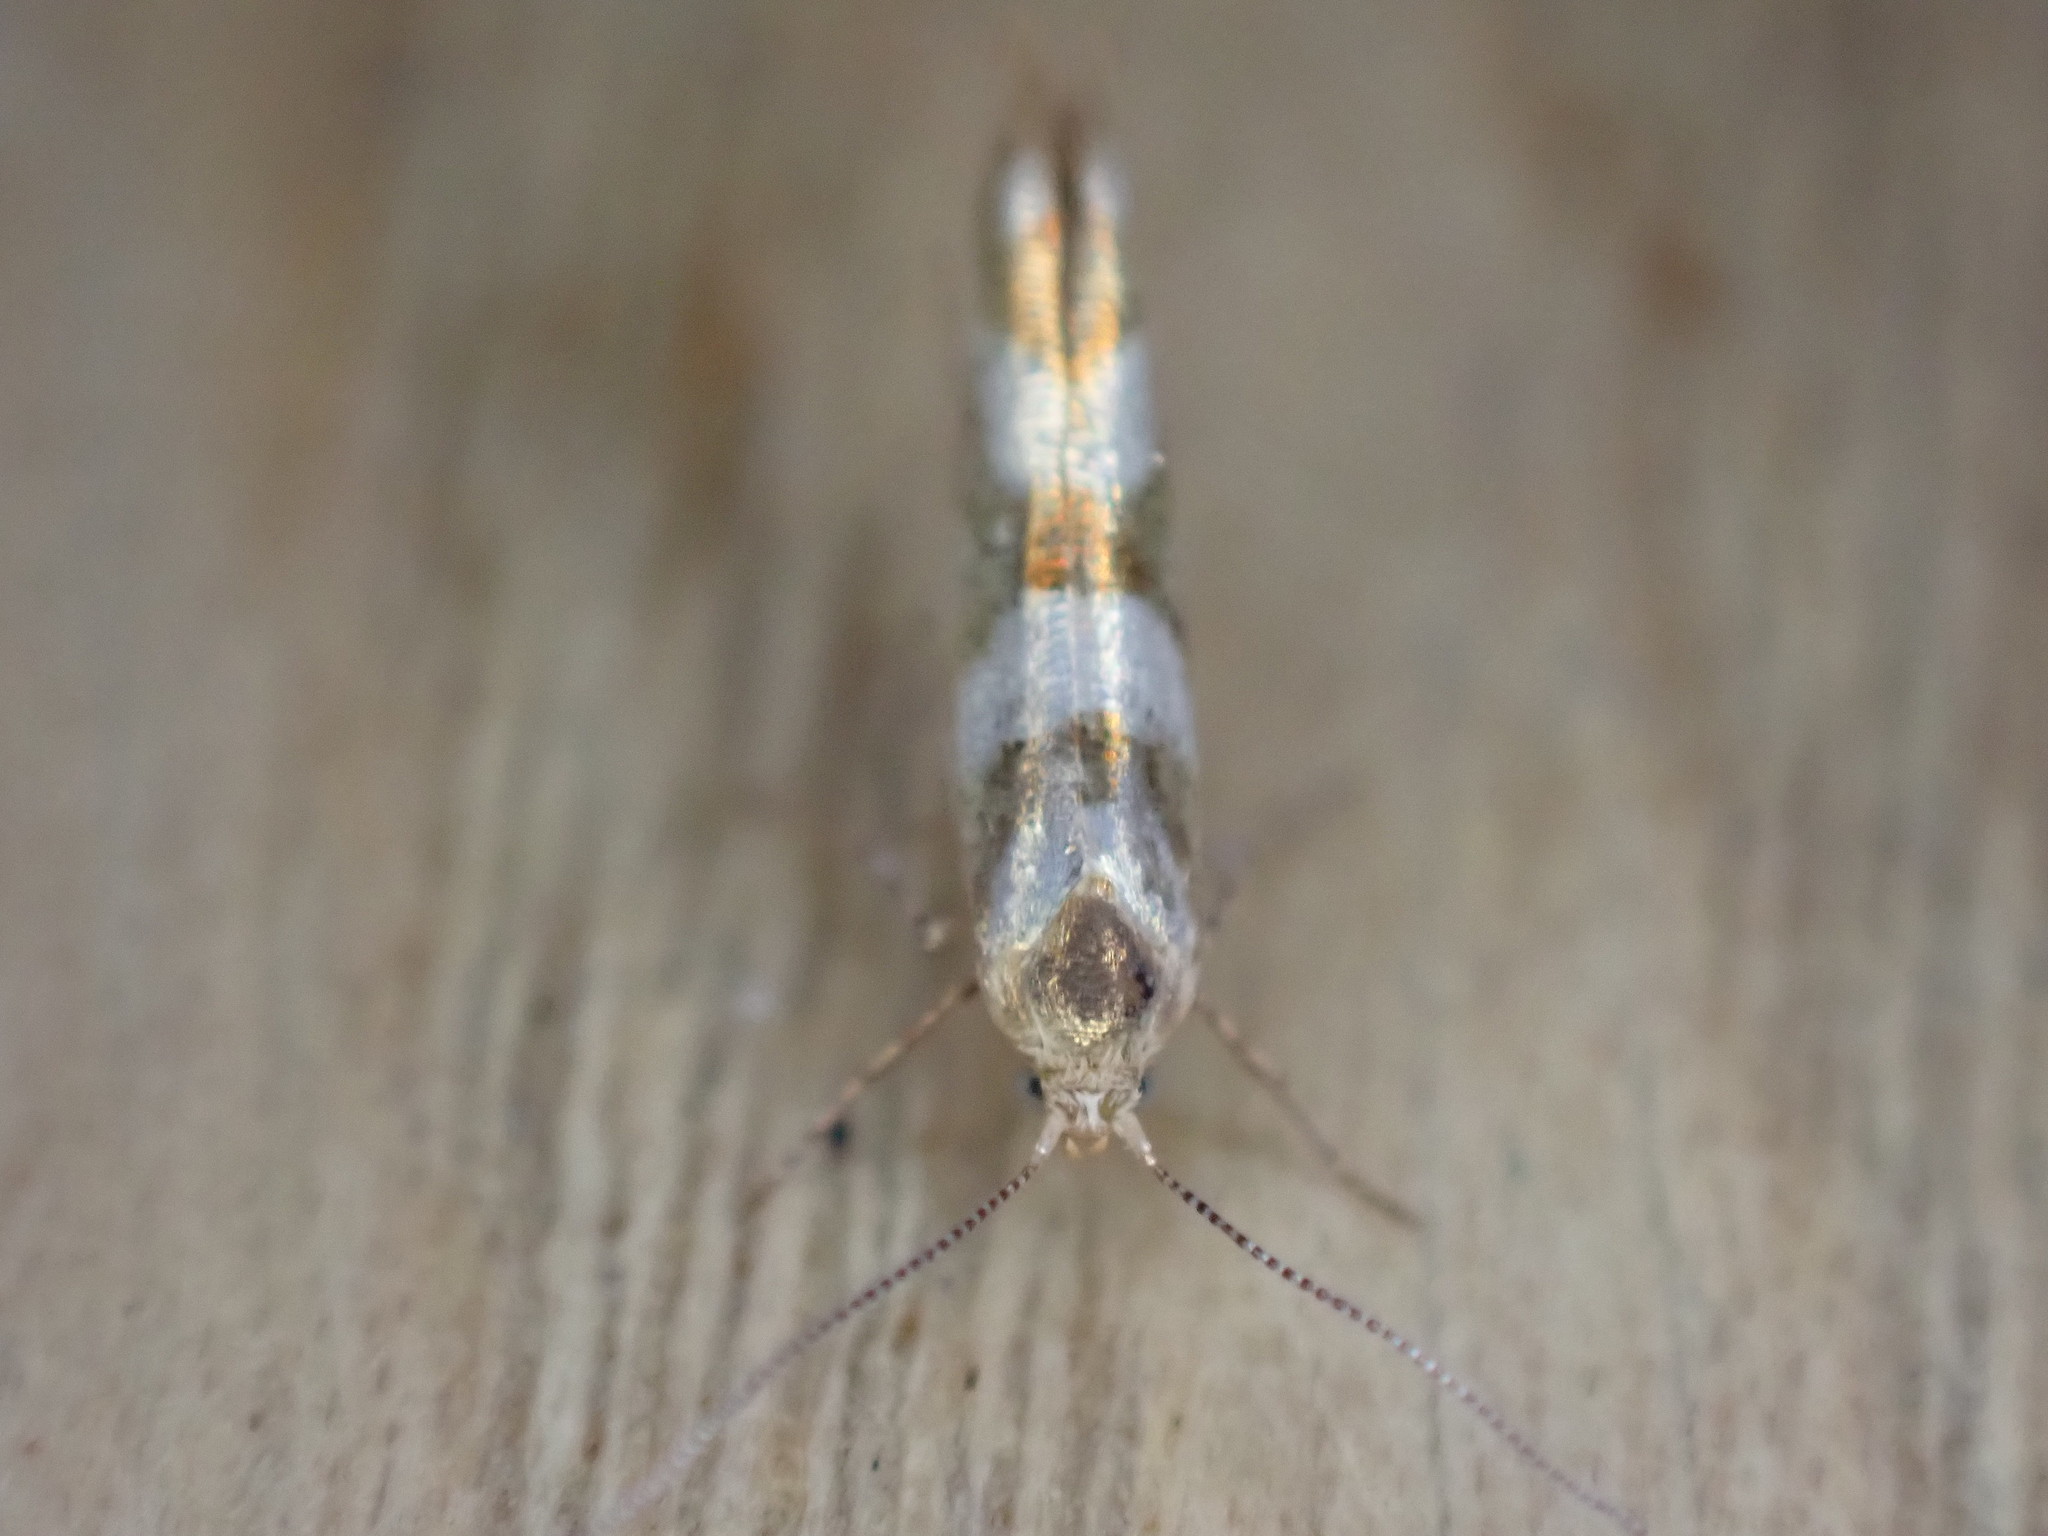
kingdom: Animalia
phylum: Arthropoda
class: Insecta
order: Lepidoptera
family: Argyresthiidae
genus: Argyresthia
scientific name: Argyresthia goedartella
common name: Golden argent
